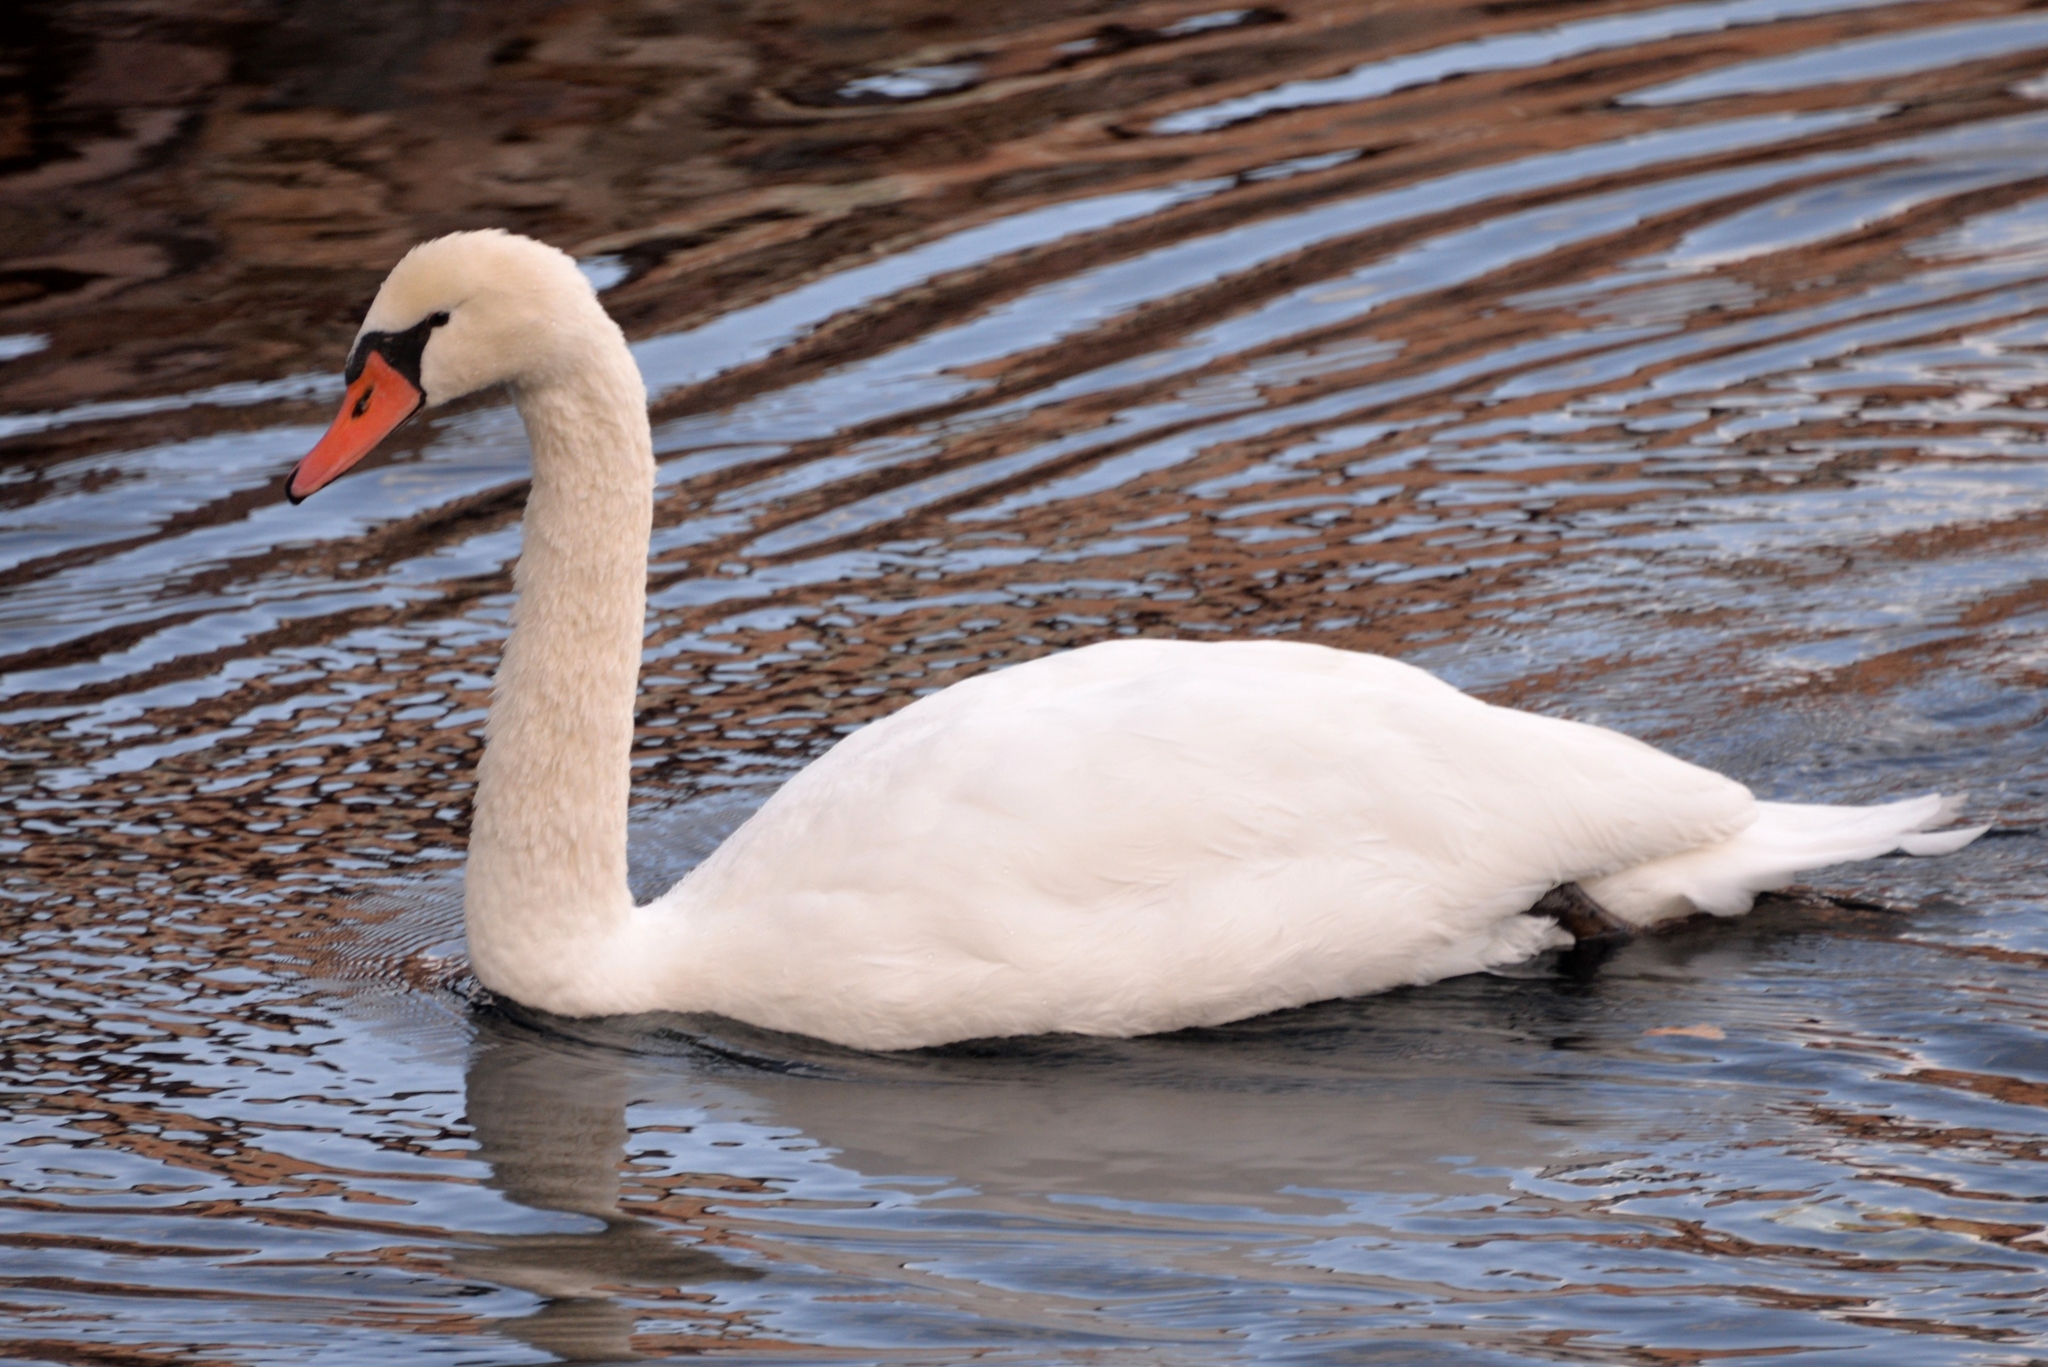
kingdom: Animalia
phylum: Chordata
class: Aves
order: Anseriformes
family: Anatidae
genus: Cygnus
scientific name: Cygnus olor
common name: Mute swan
